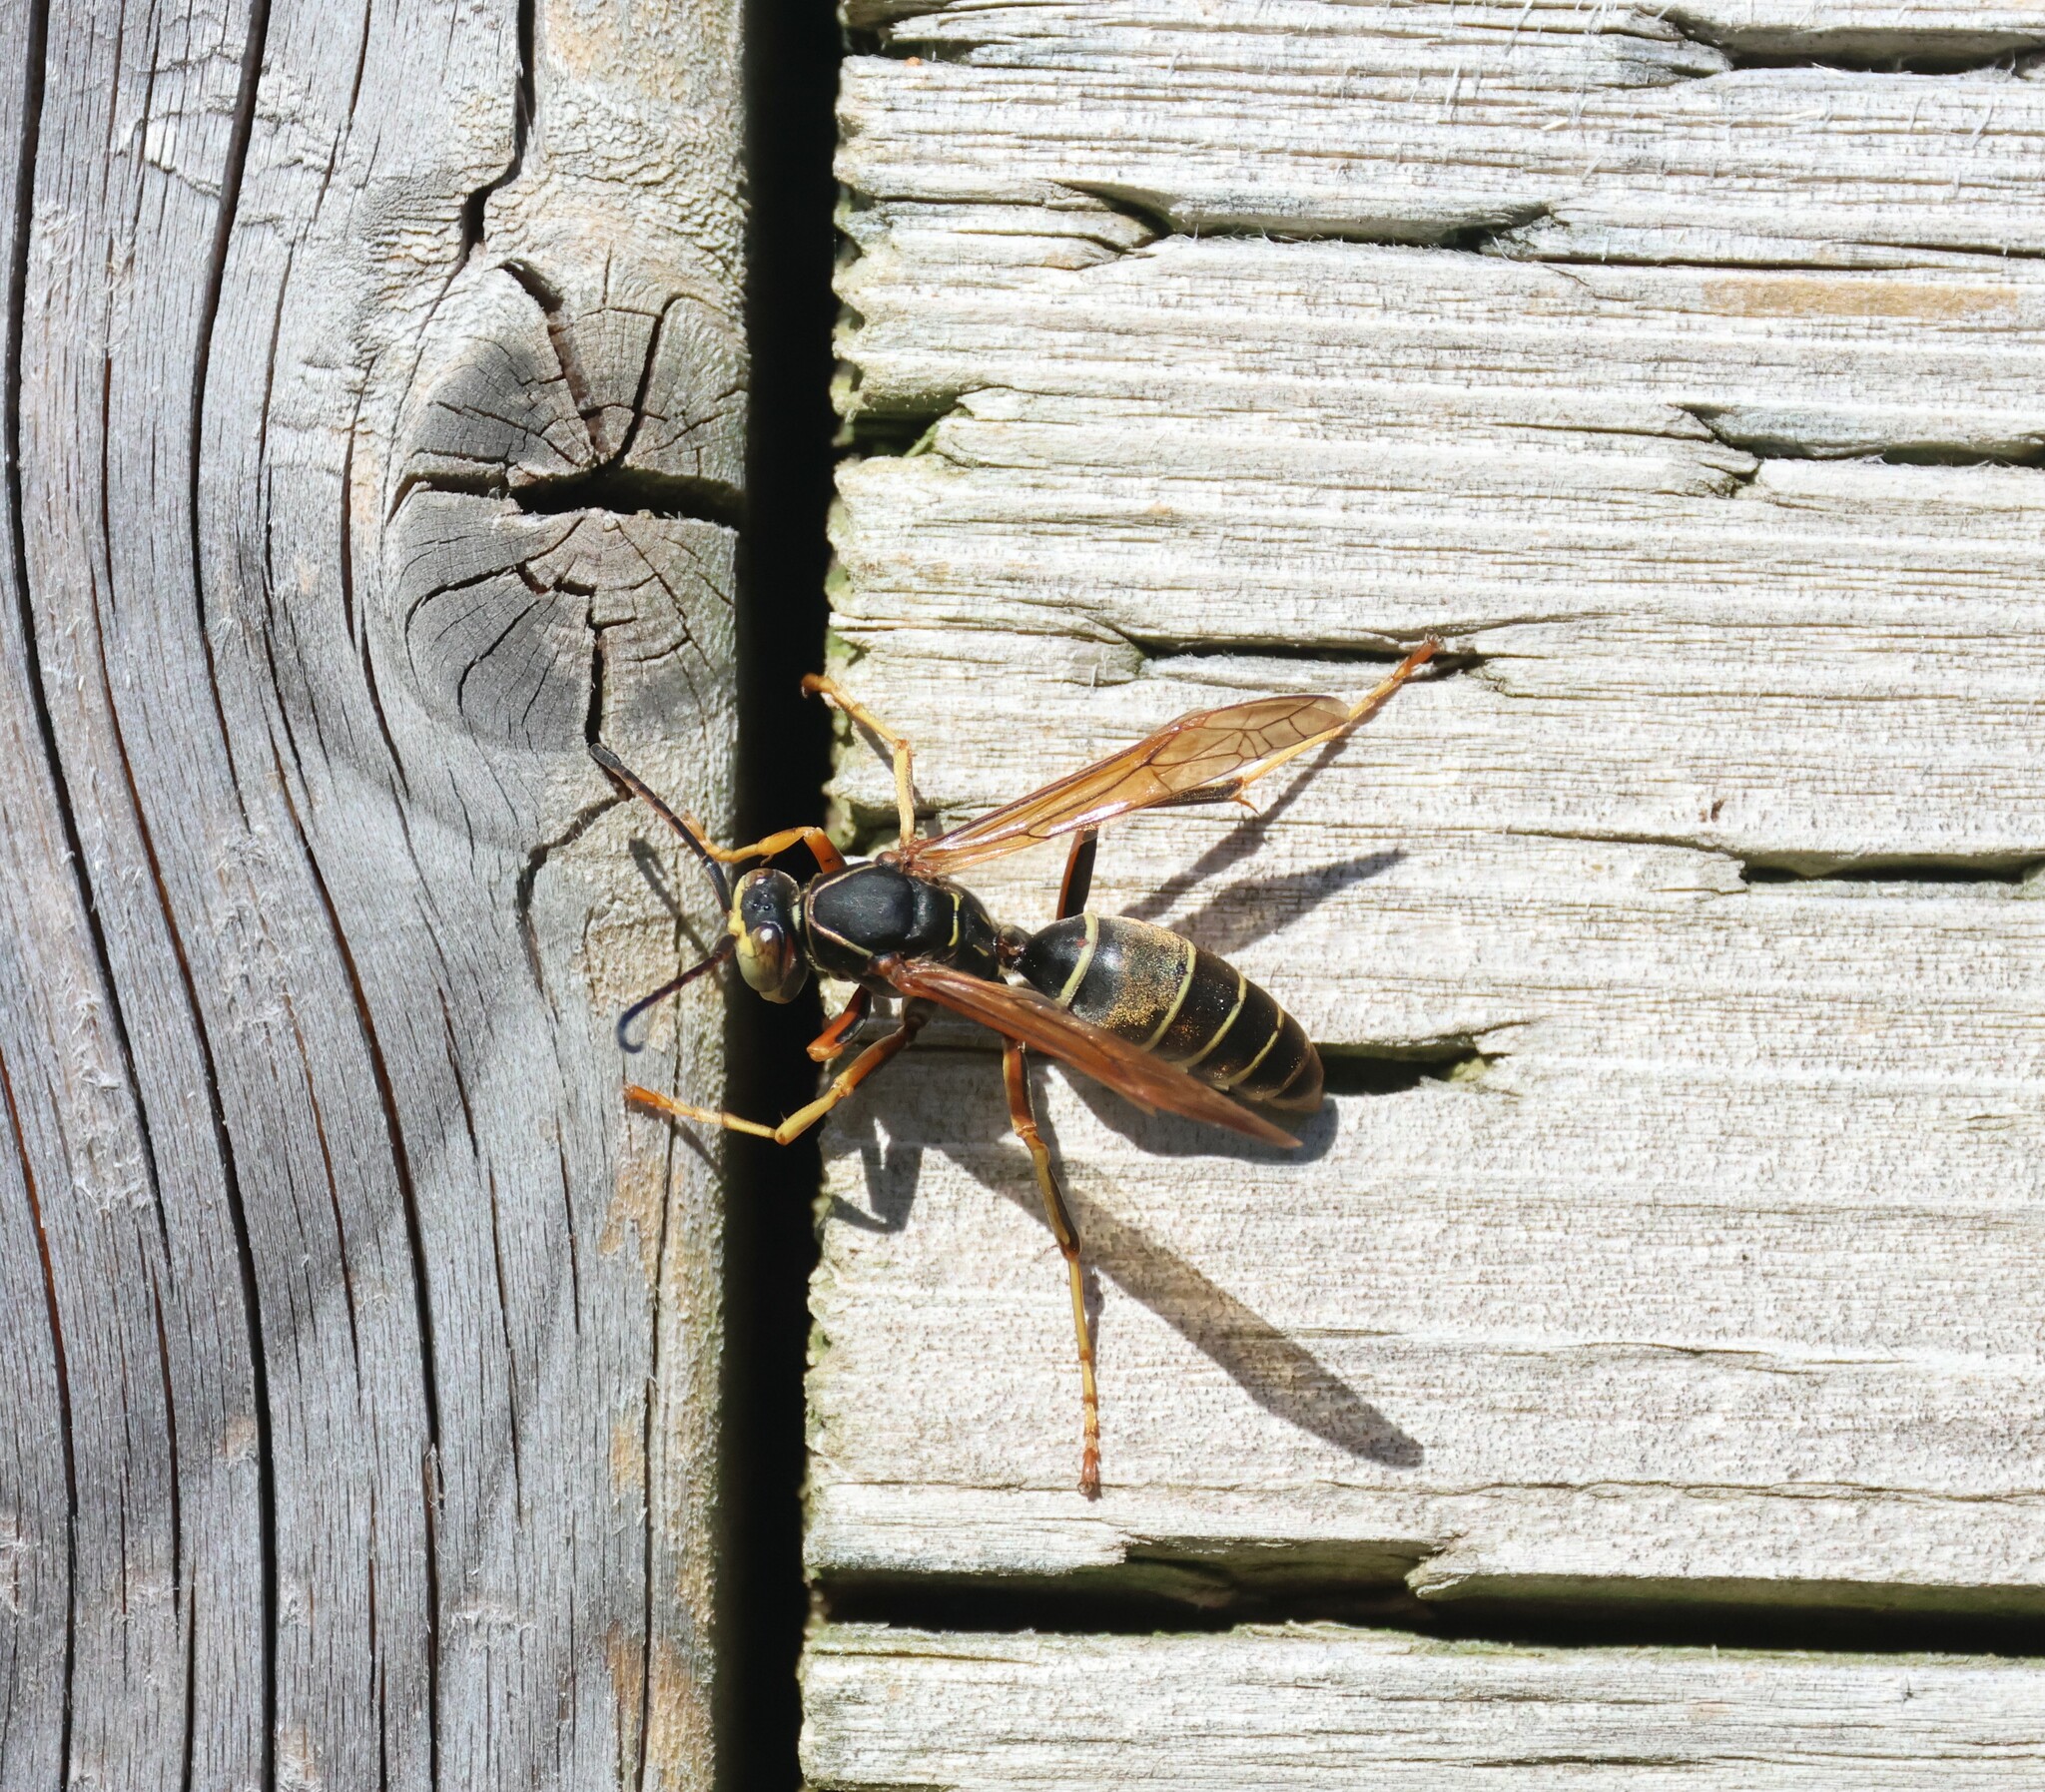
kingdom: Animalia
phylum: Arthropoda
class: Insecta
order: Hymenoptera
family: Eumenidae
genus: Polistes
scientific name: Polistes fuscatus
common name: Dark paper wasp
